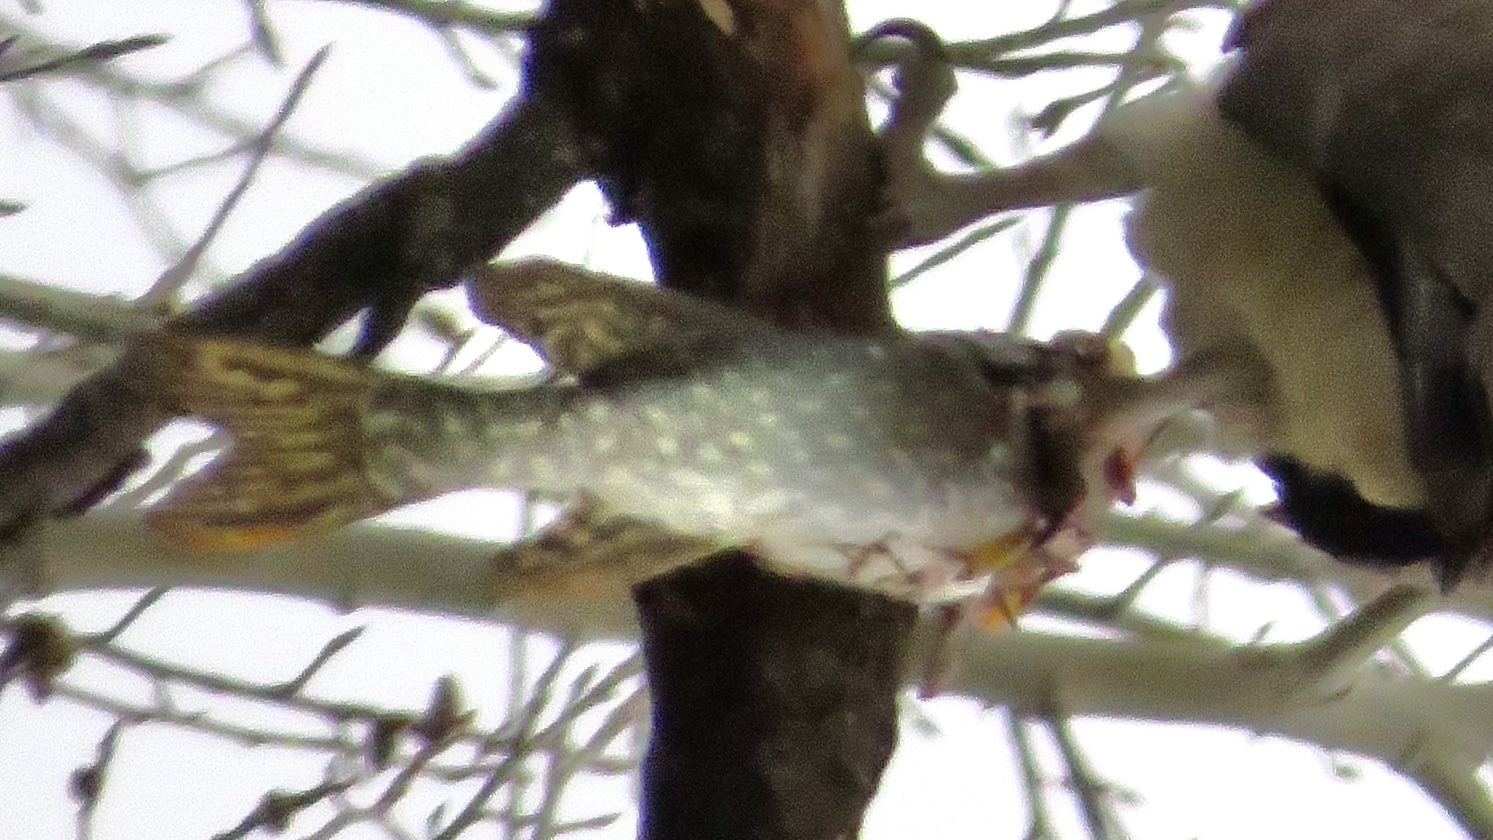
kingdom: Animalia
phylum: Chordata
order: Esociformes
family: Esocidae
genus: Esox
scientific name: Esox lucius
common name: Northern pike
